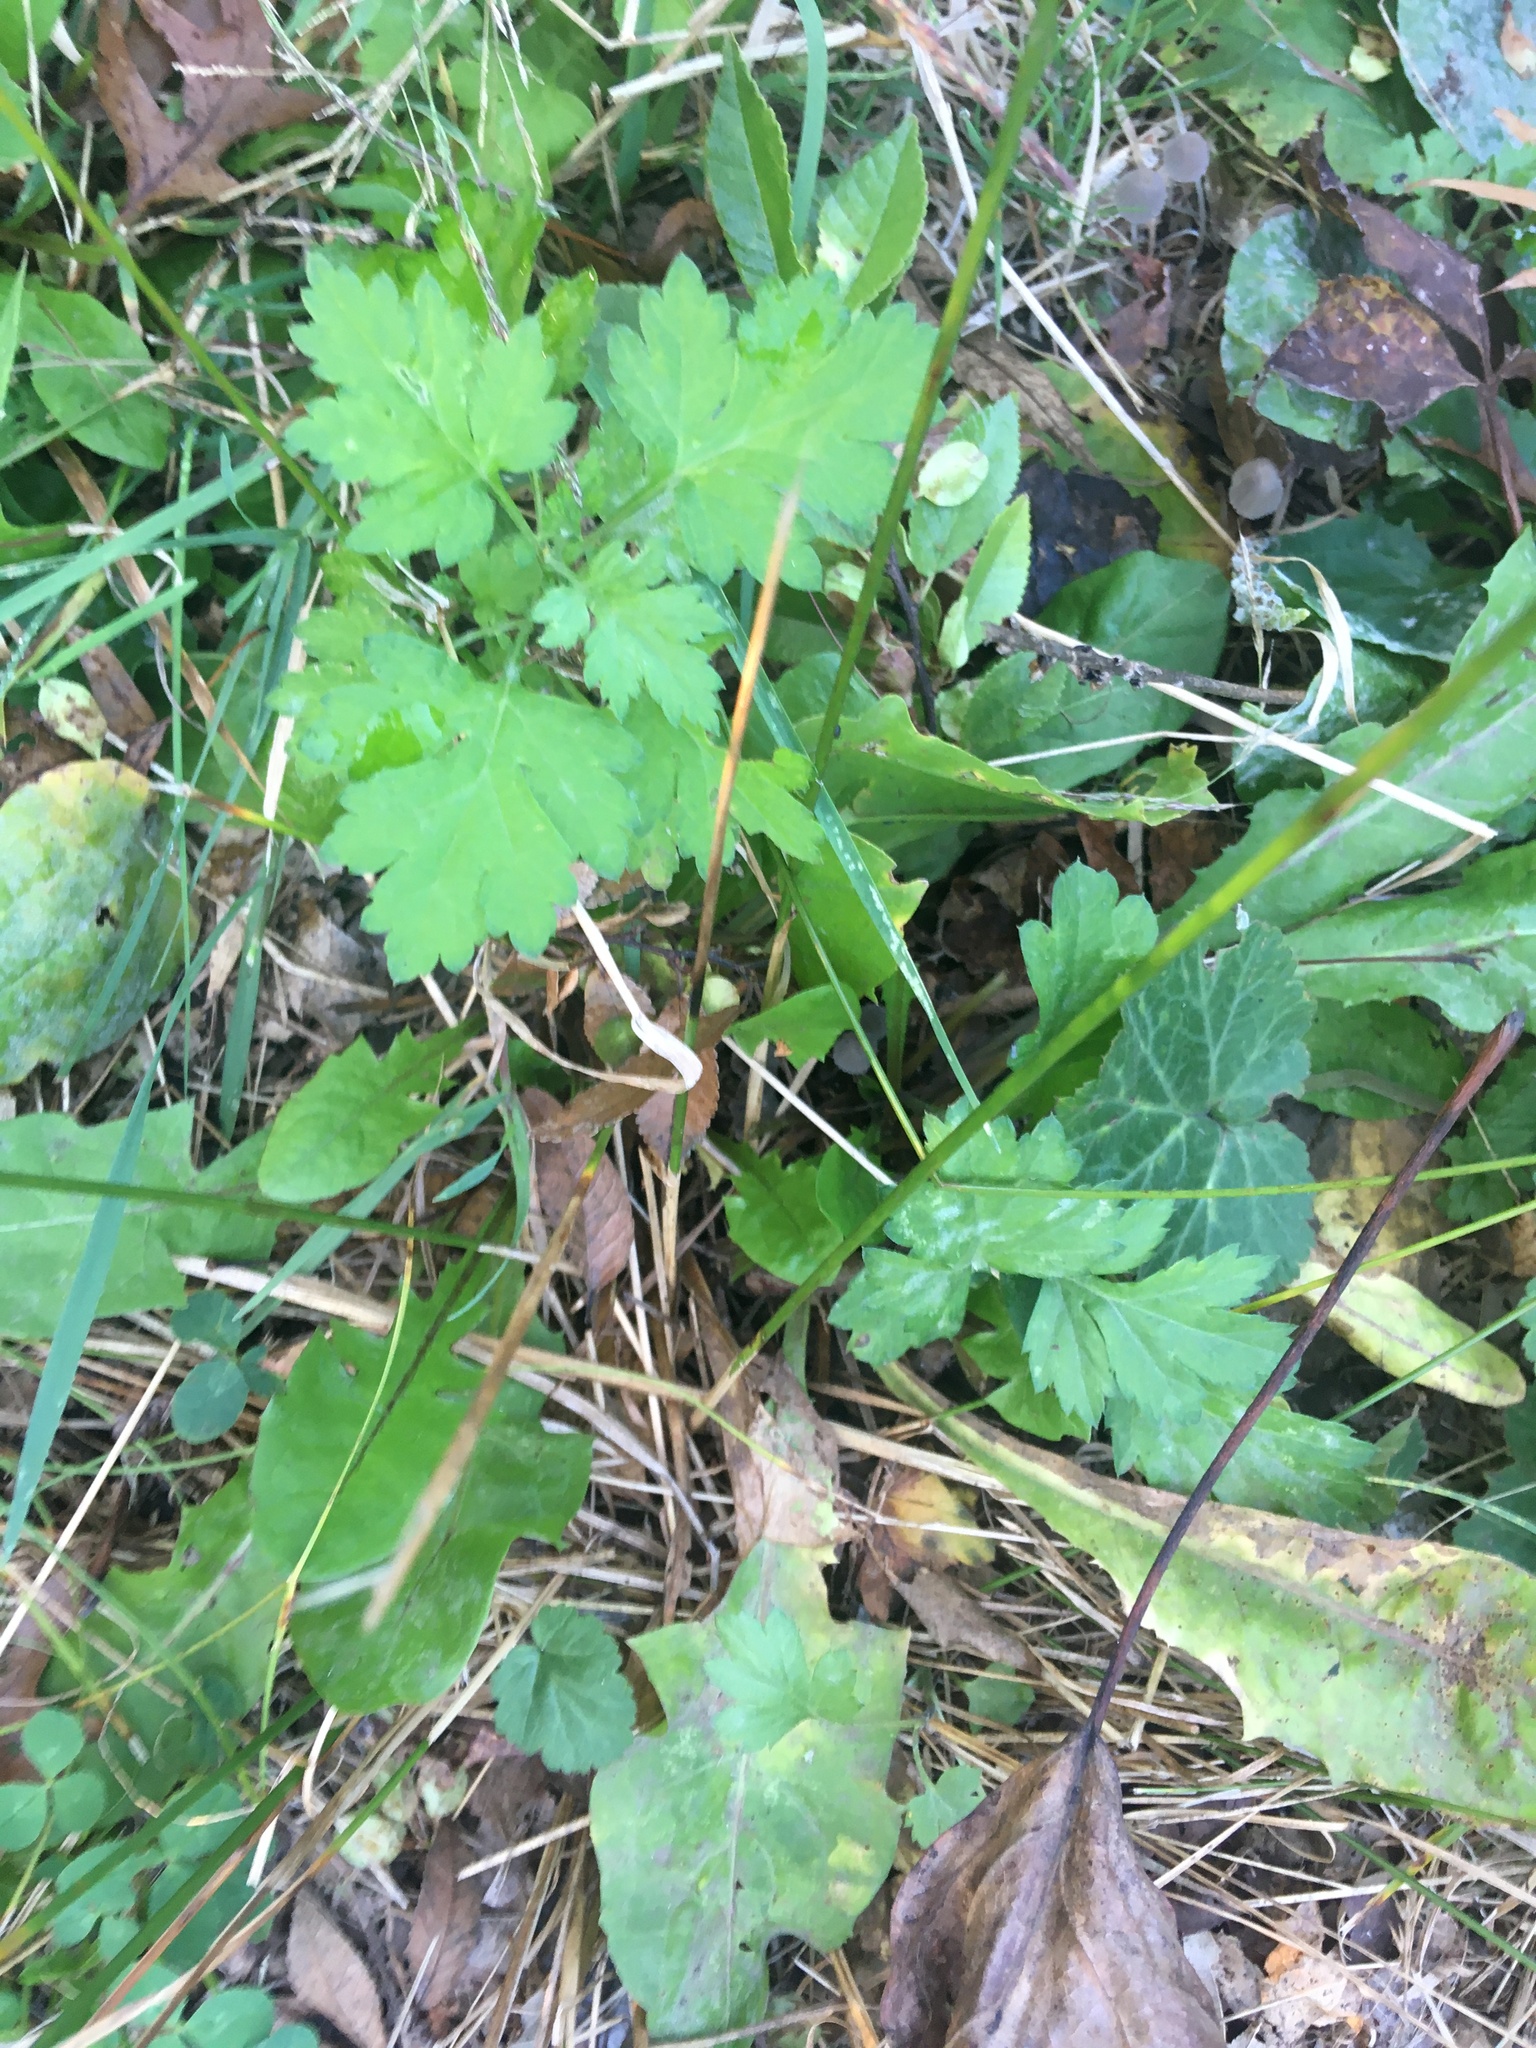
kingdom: Plantae
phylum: Tracheophyta
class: Magnoliopsida
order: Asterales
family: Asteraceae
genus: Artemisia
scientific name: Artemisia vulgaris
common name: Mugwort
